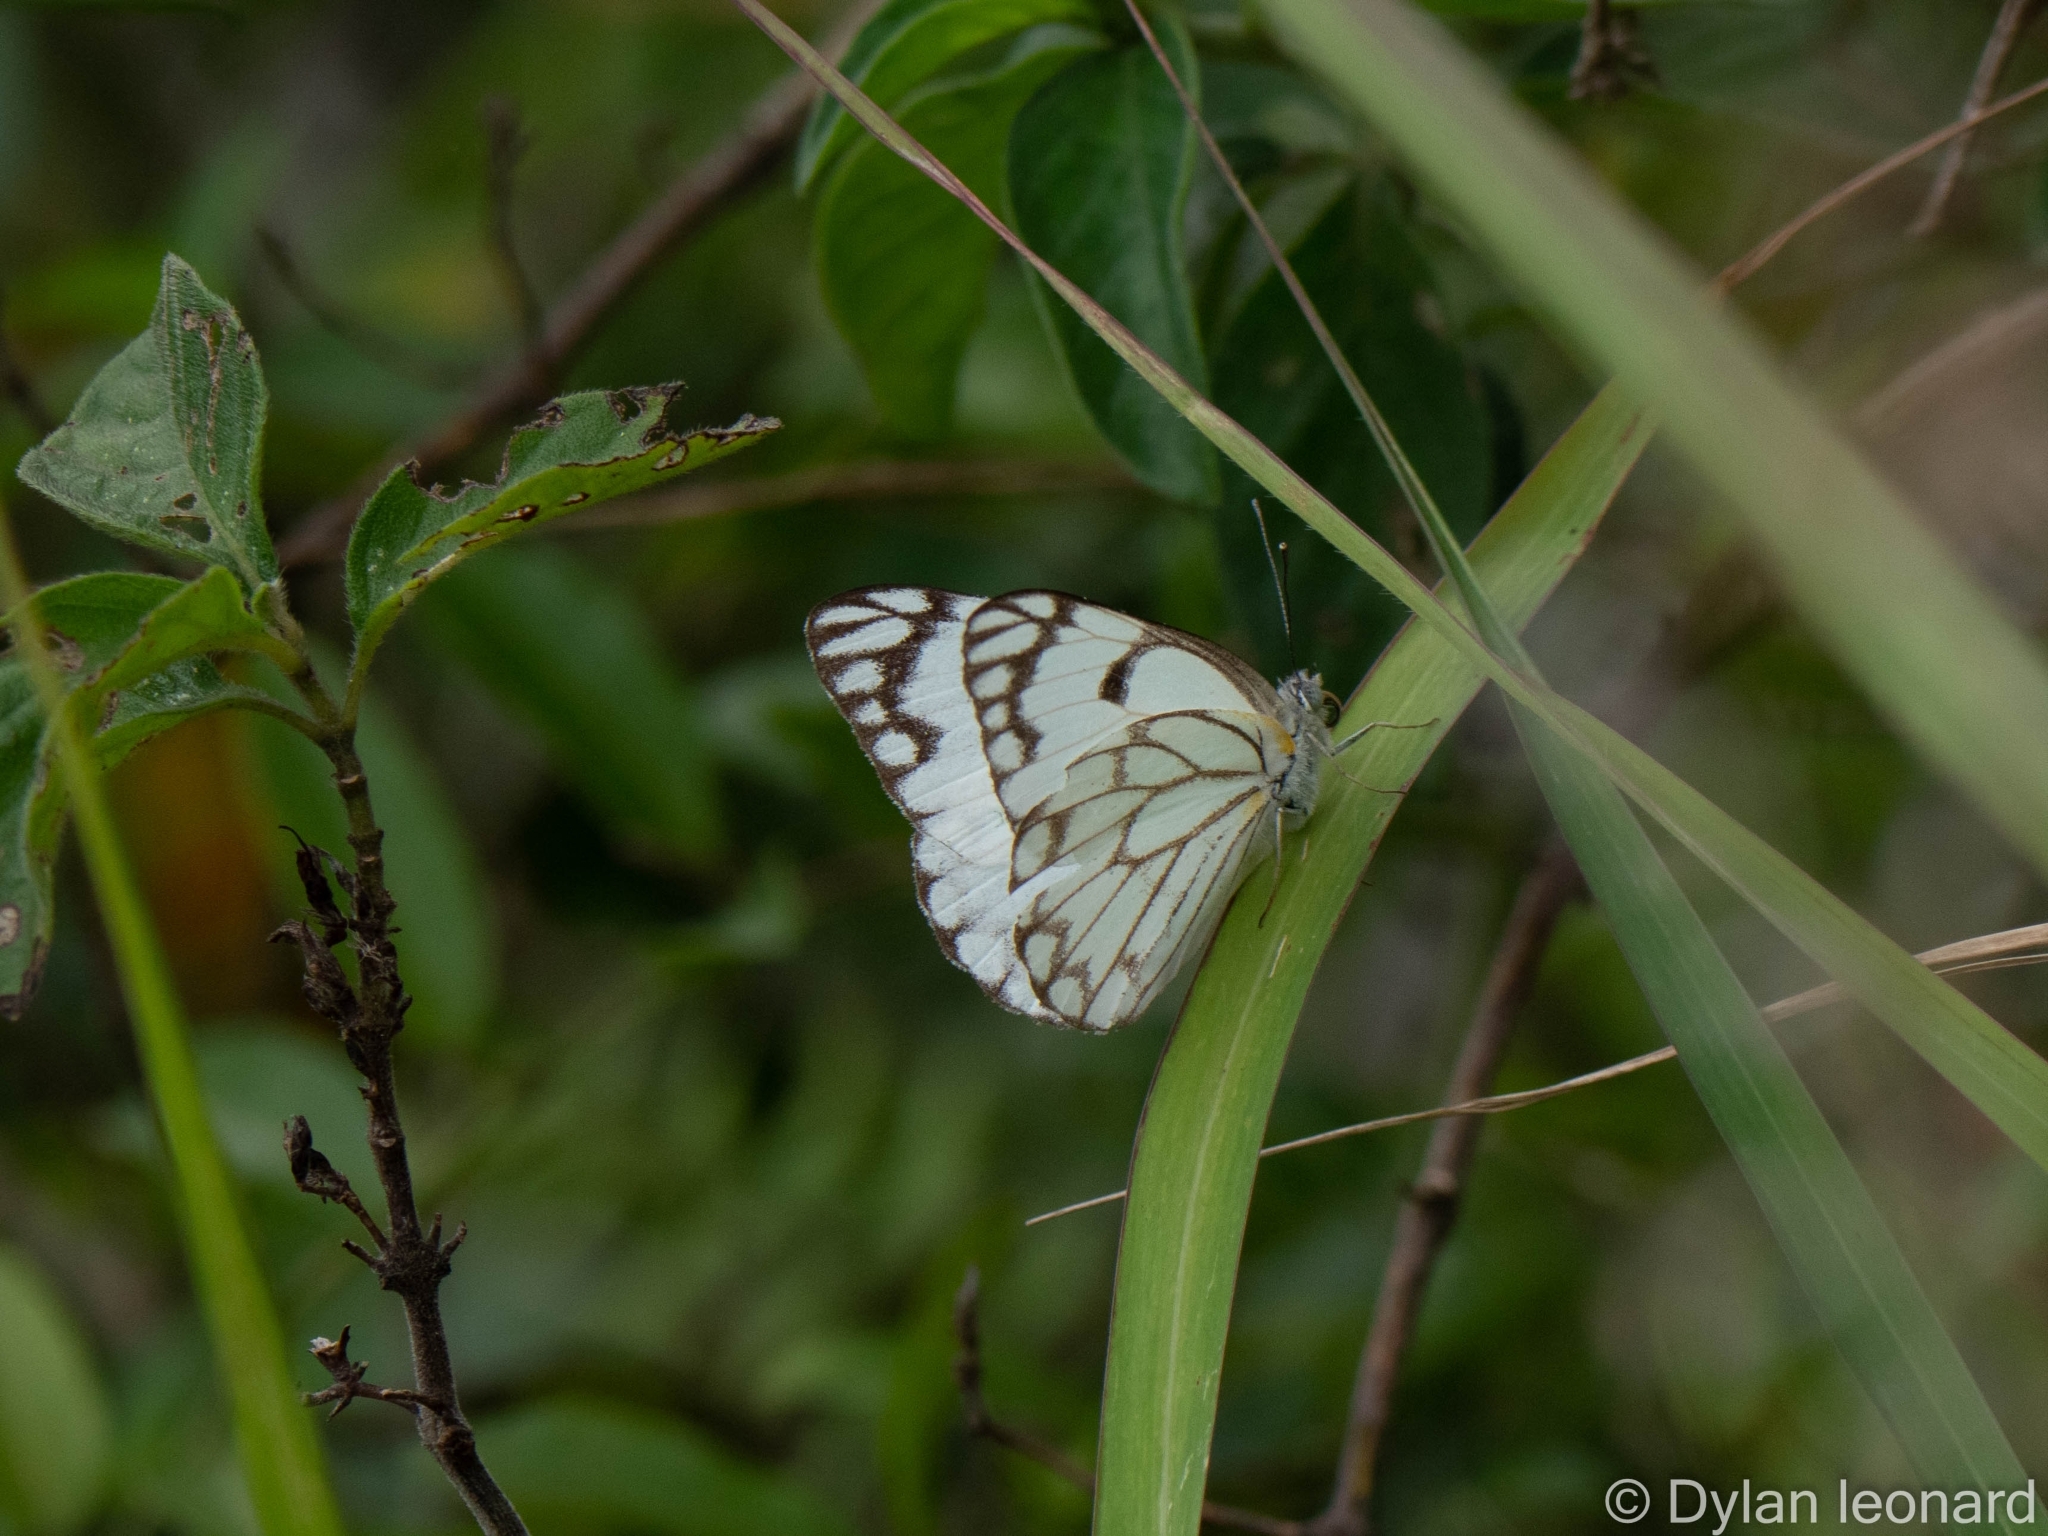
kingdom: Animalia
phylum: Arthropoda
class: Insecta
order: Lepidoptera
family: Pieridae
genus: Belenois
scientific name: Belenois aurota
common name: Brown-veined white
